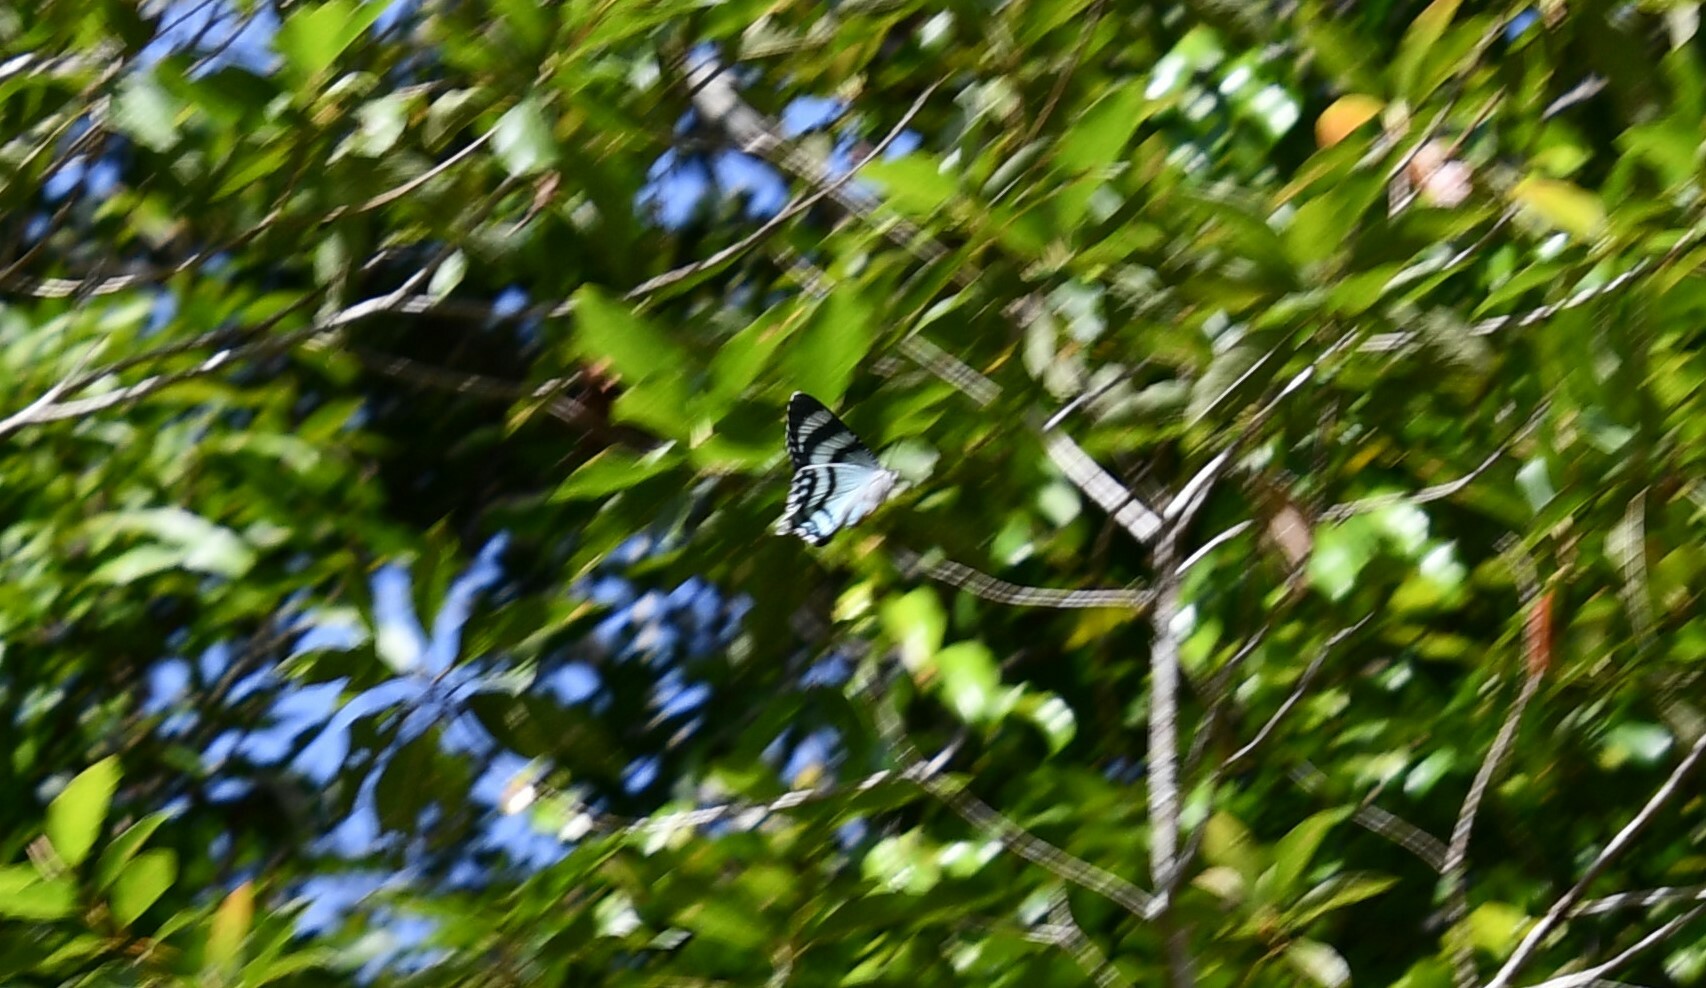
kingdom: Animalia
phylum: Arthropoda
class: Insecta
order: Lepidoptera
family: Uraniidae
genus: Alcides
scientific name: Alcides metaurus
